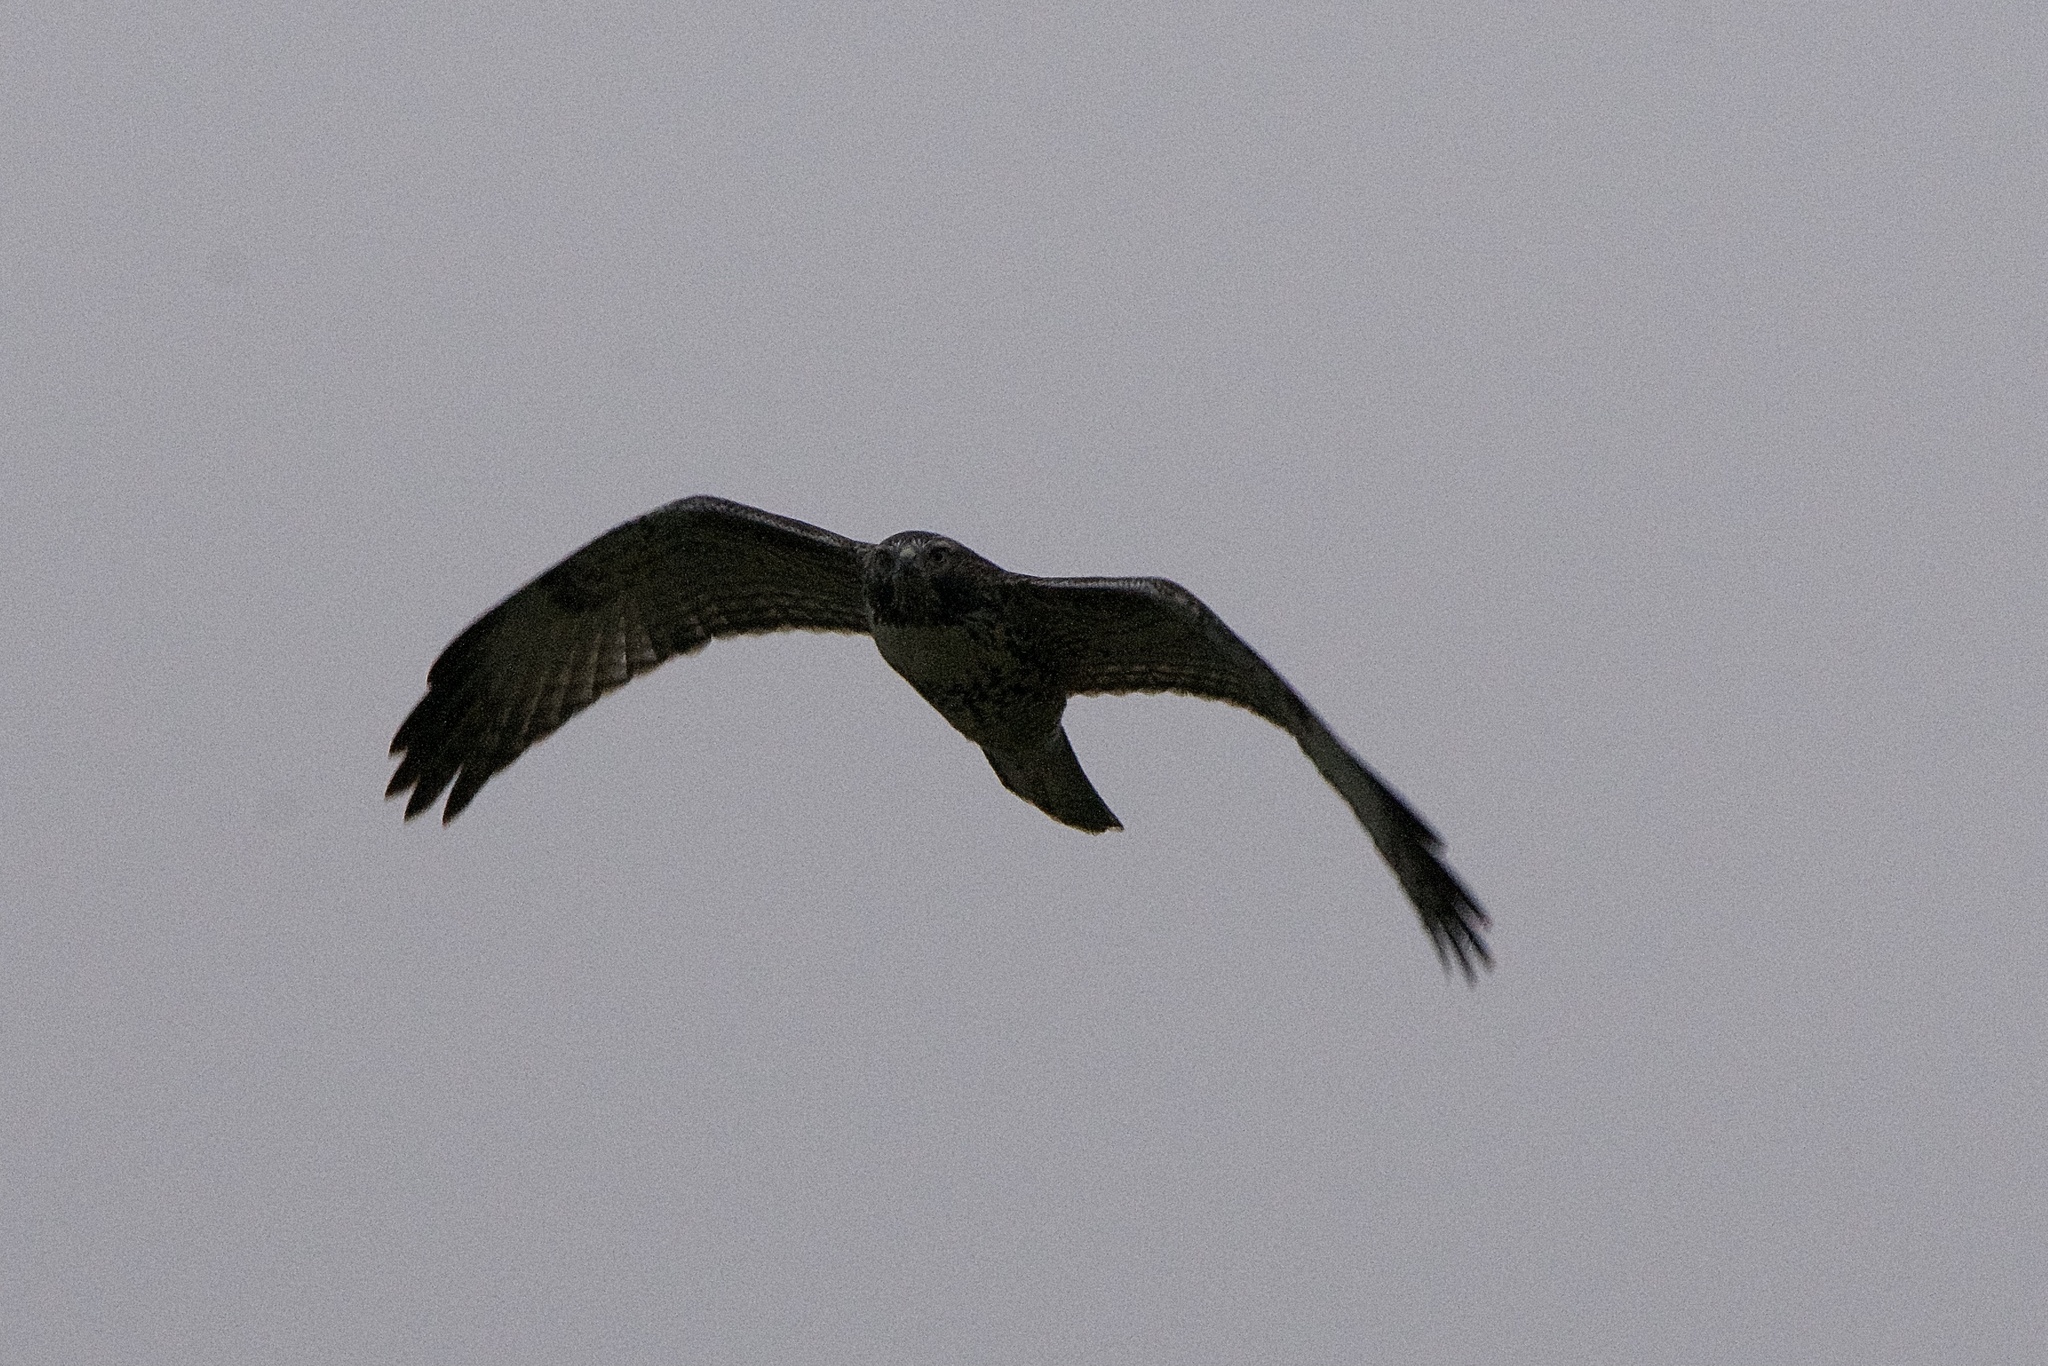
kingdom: Animalia
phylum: Chordata
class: Aves
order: Accipitriformes
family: Accipitridae
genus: Buteo
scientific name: Buteo jamaicensis
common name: Red-tailed hawk
